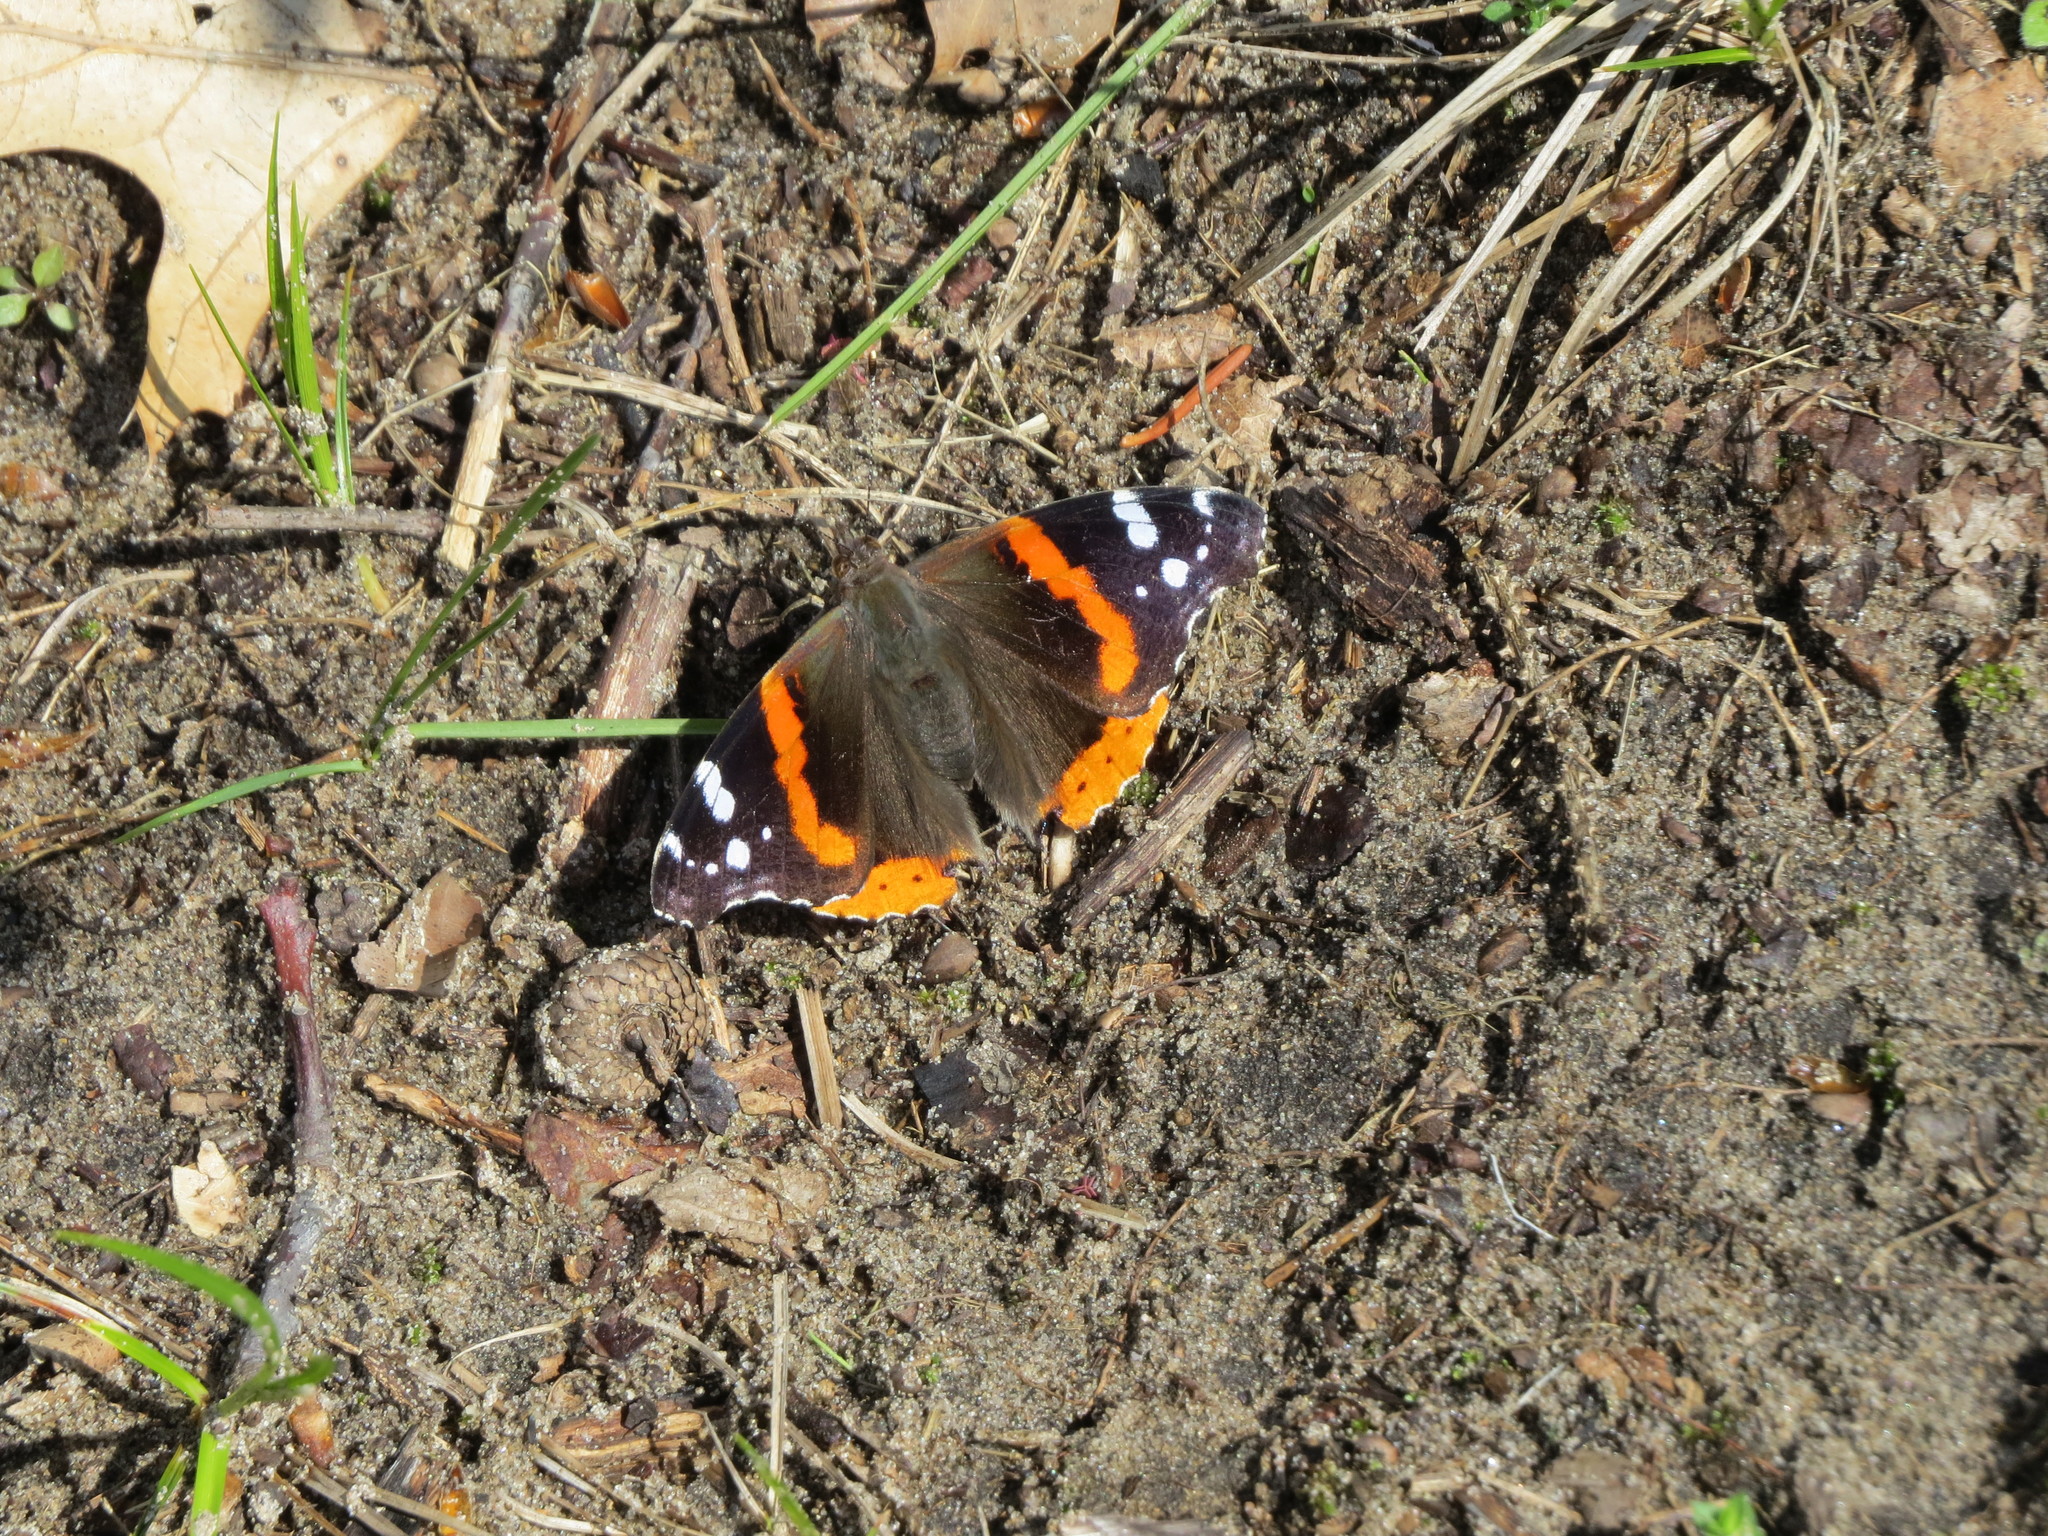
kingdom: Animalia
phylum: Arthropoda
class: Insecta
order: Lepidoptera
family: Nymphalidae
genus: Vanessa
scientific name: Vanessa atalanta
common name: Red admiral
